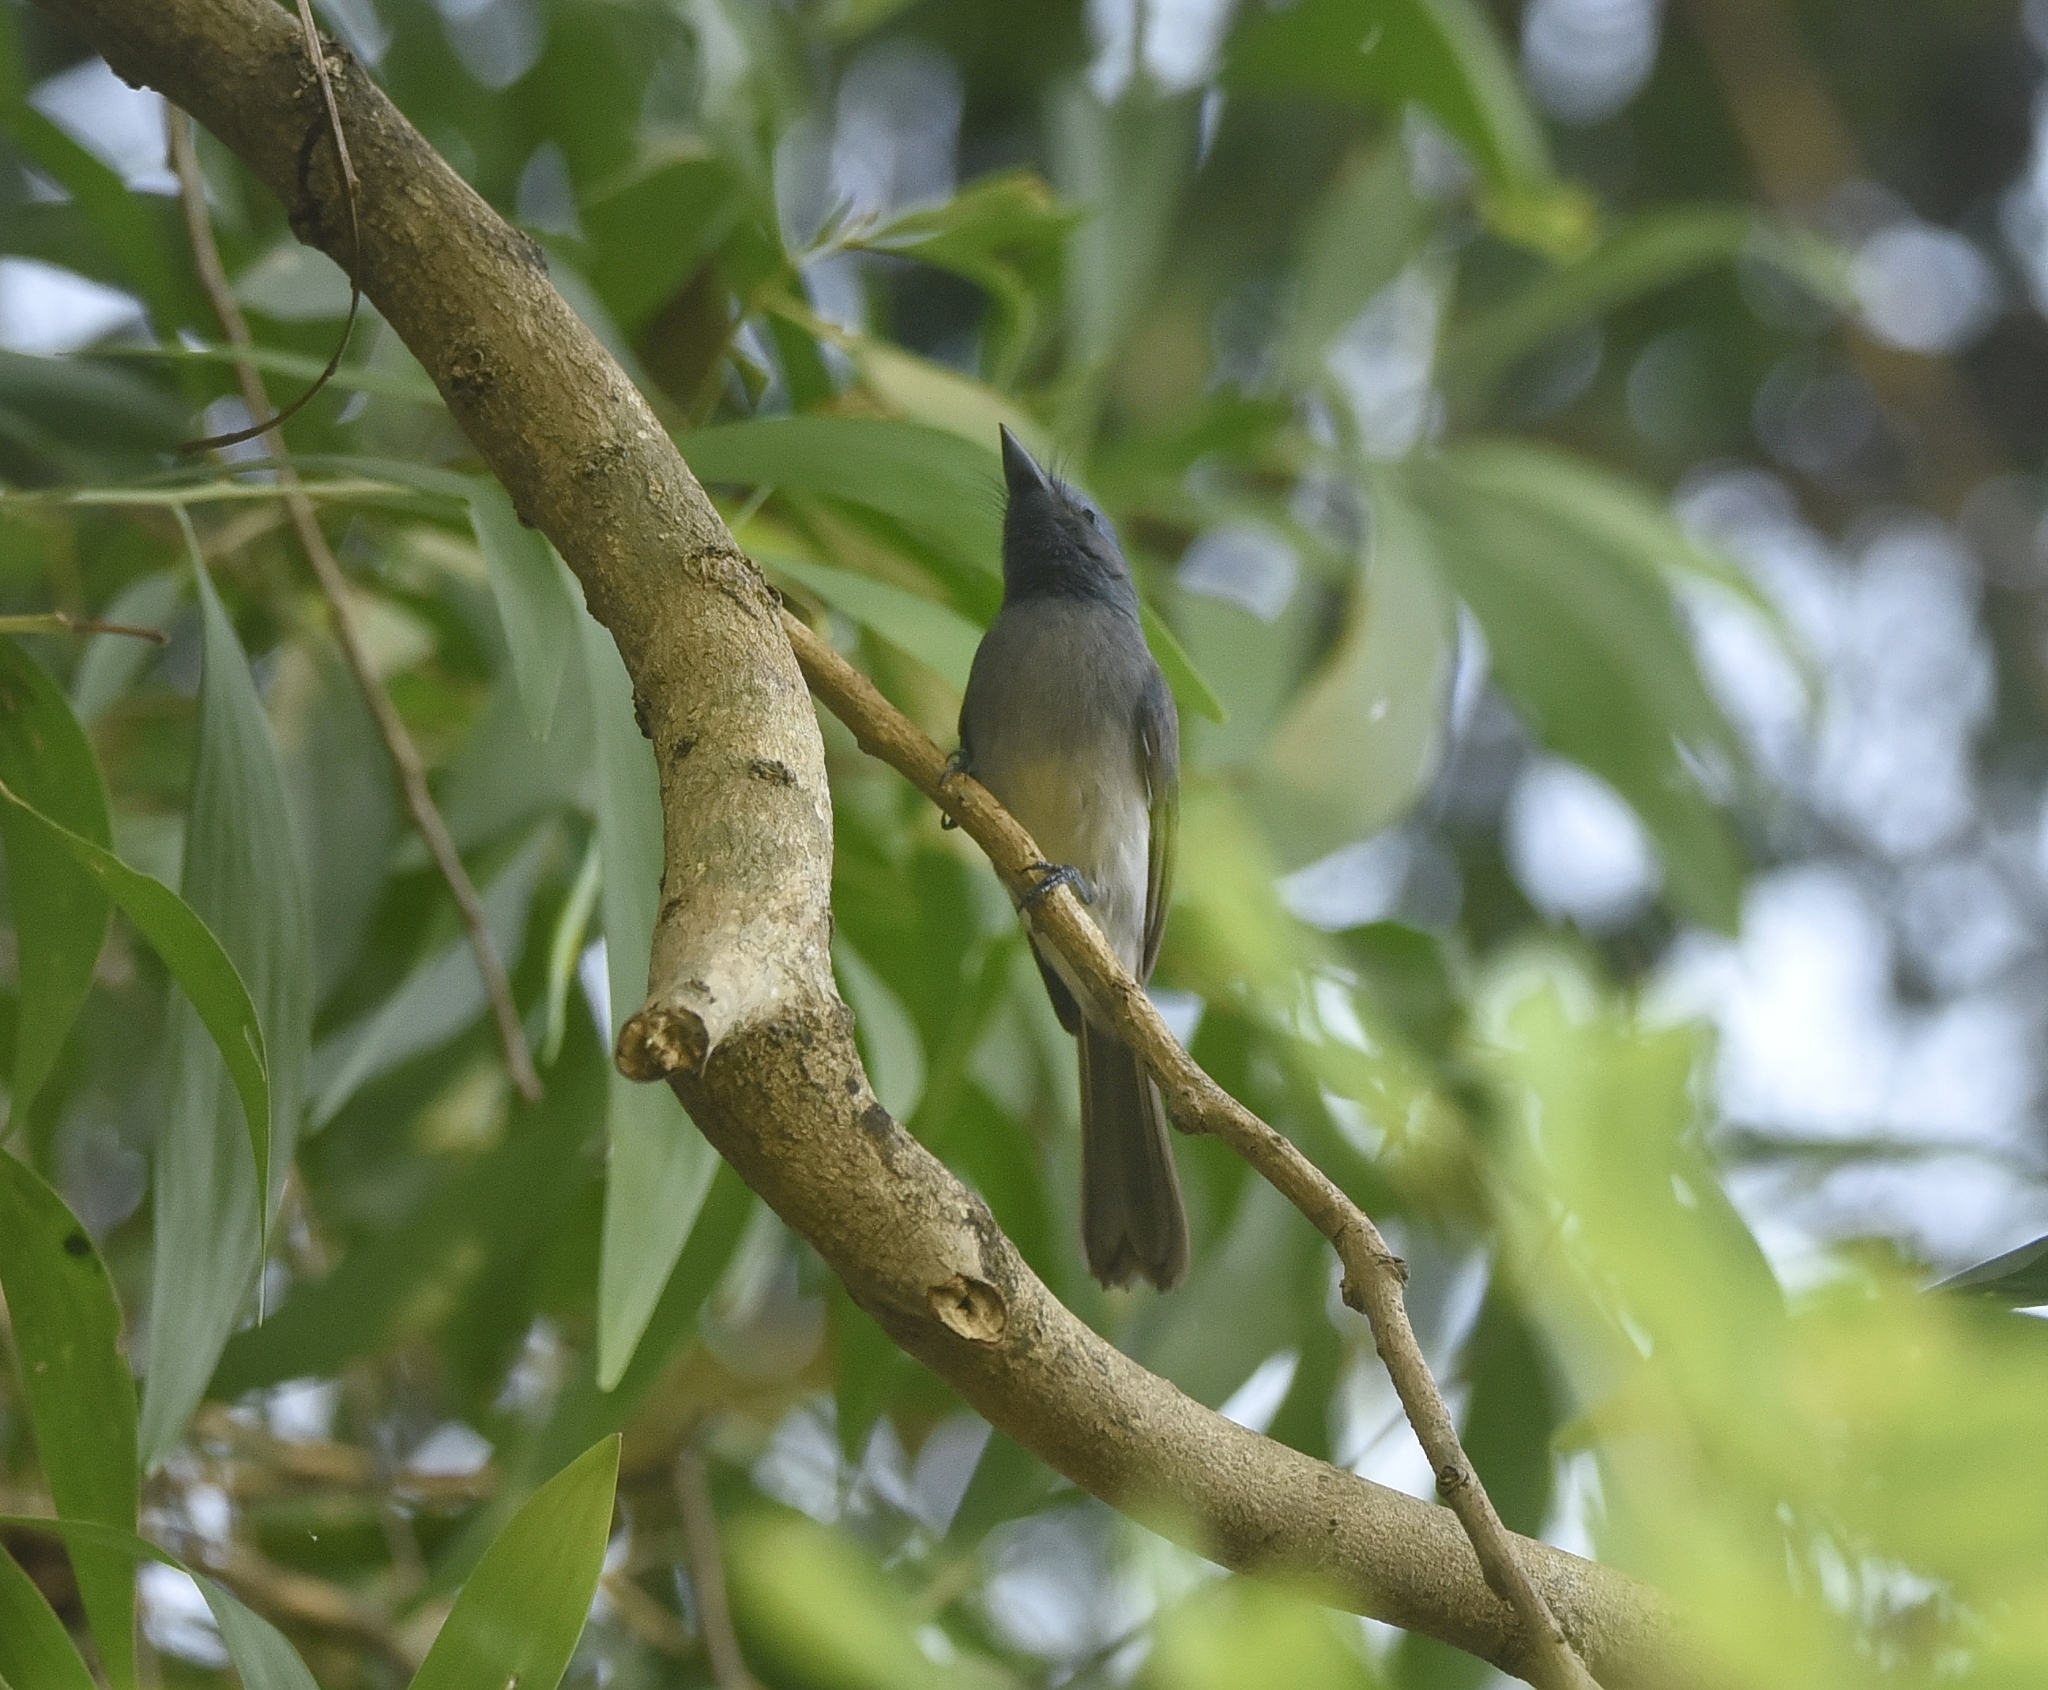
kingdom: Animalia
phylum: Chordata
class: Aves
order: Passeriformes
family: Monarchidae
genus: Hypothymis
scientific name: Hypothymis azurea
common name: Black-naped monarch
